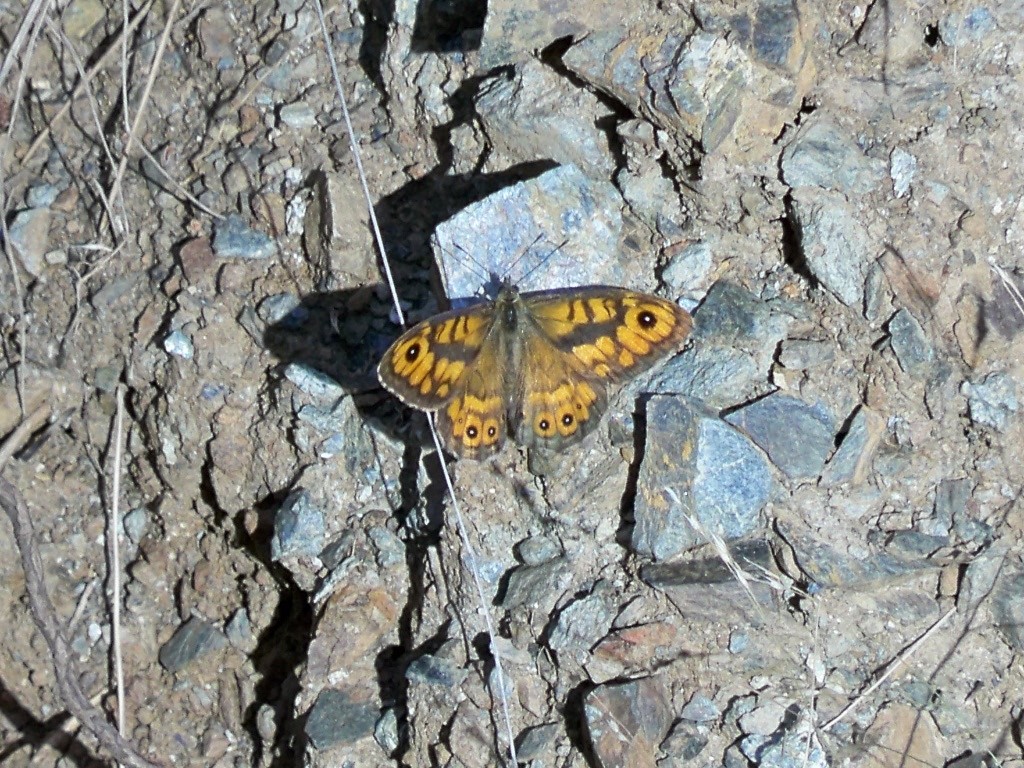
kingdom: Animalia
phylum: Arthropoda
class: Insecta
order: Lepidoptera
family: Nymphalidae
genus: Pararge
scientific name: Pararge Lasiommata megera
